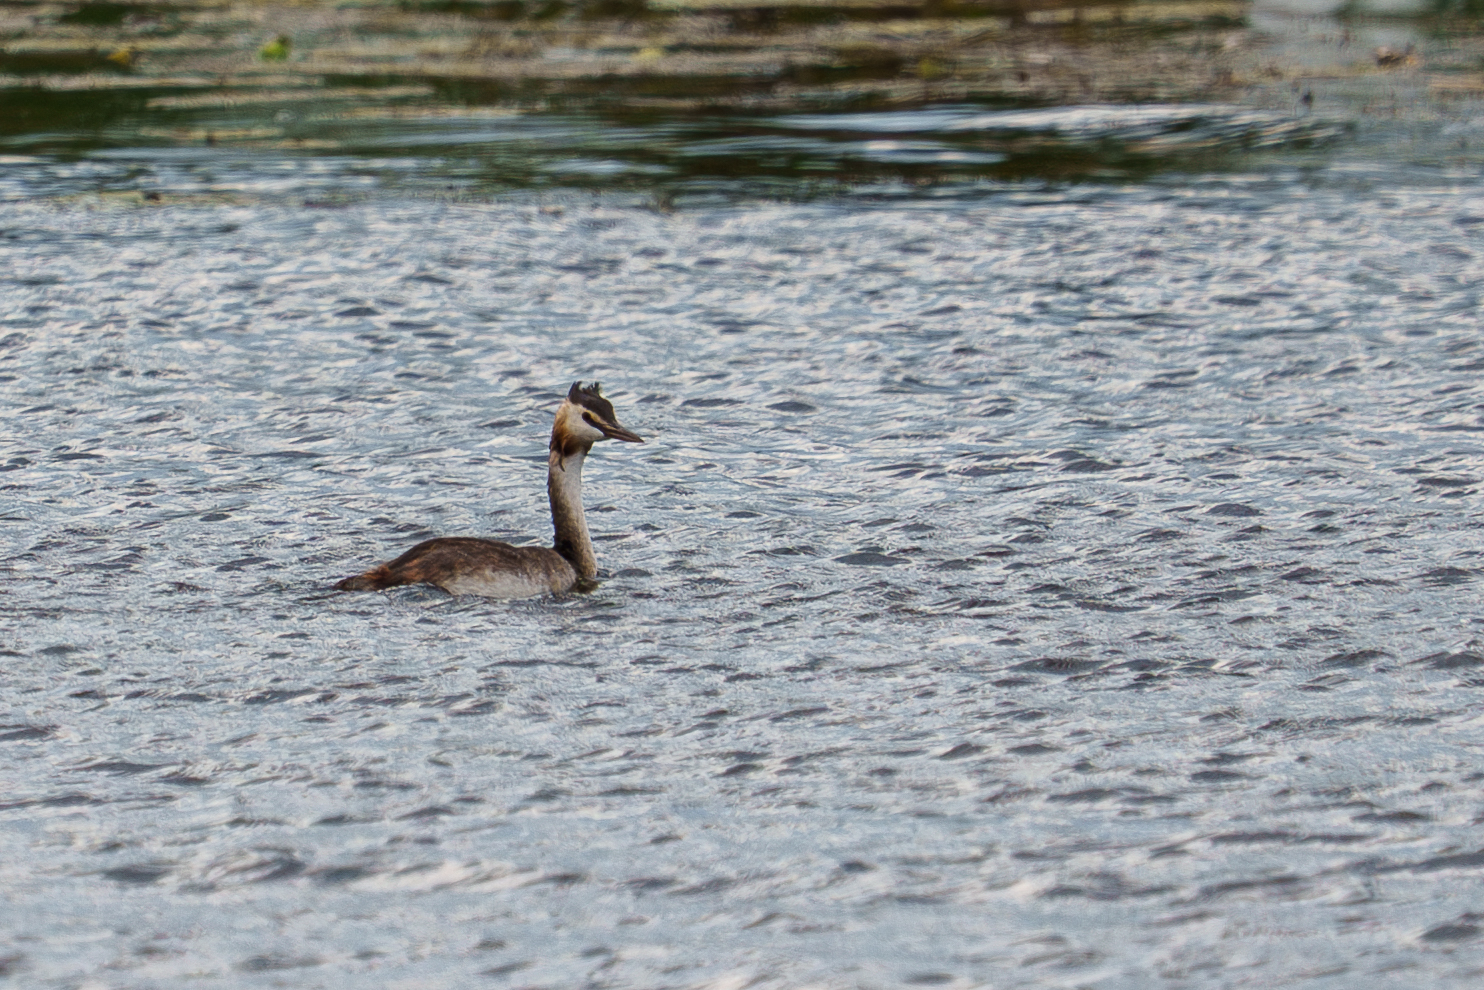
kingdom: Animalia
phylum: Chordata
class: Aves
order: Podicipediformes
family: Podicipedidae
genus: Podiceps
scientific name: Podiceps cristatus
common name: Great crested grebe
